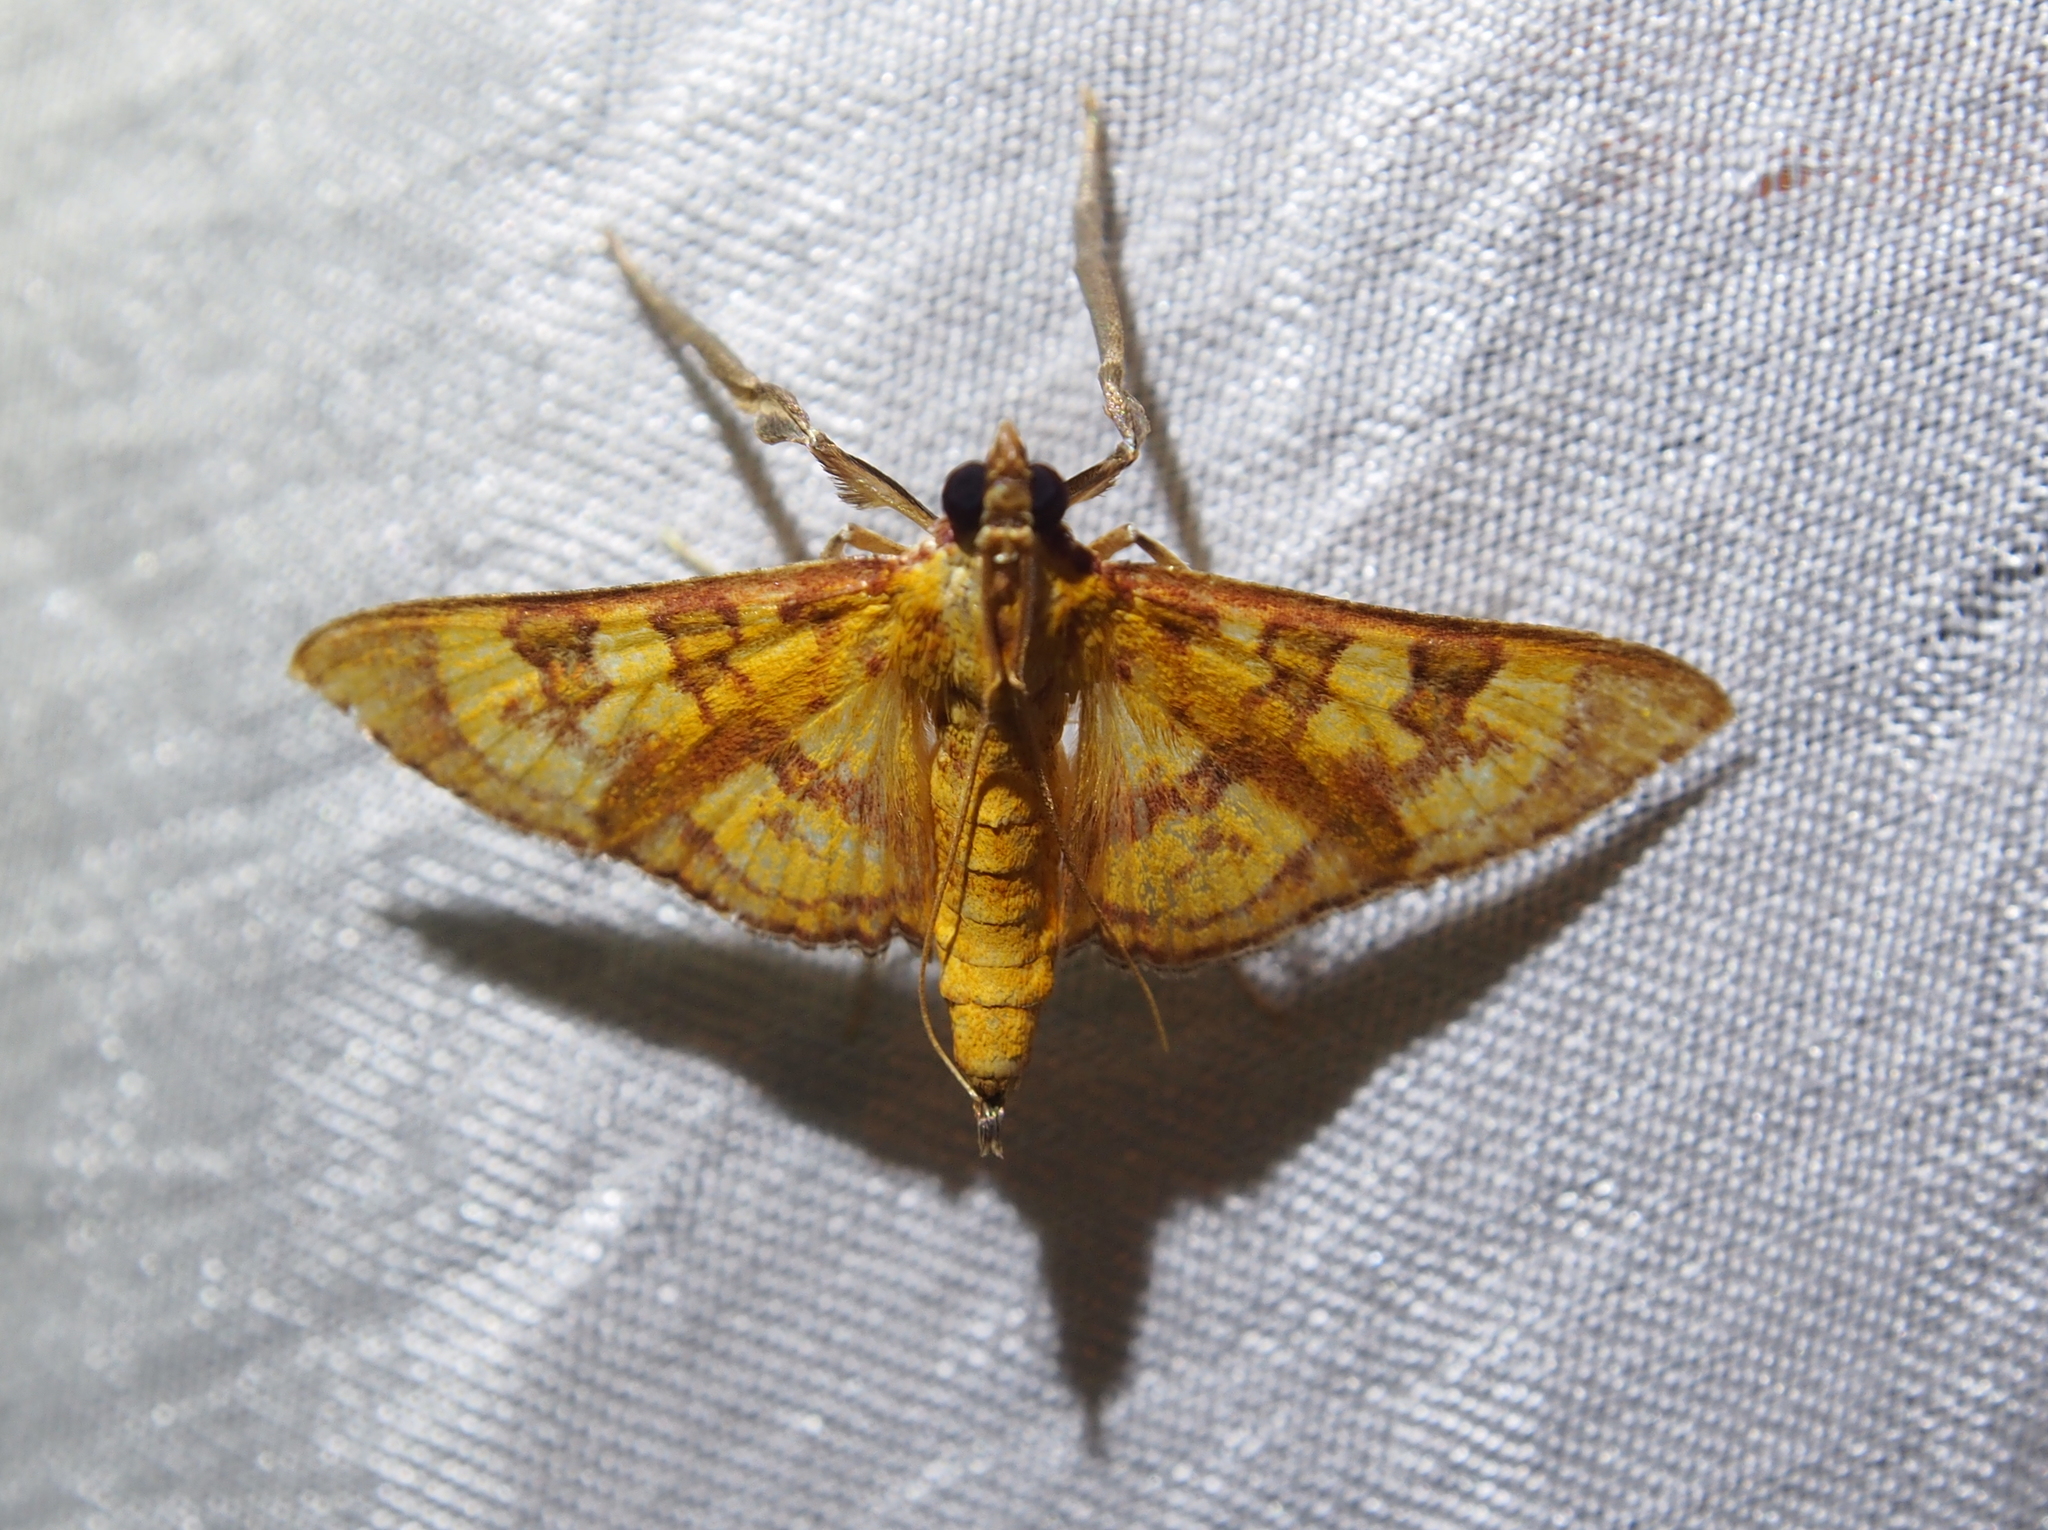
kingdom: Animalia
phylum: Arthropoda
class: Insecta
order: Lepidoptera
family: Crambidae
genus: Trithyris
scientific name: Trithyris
